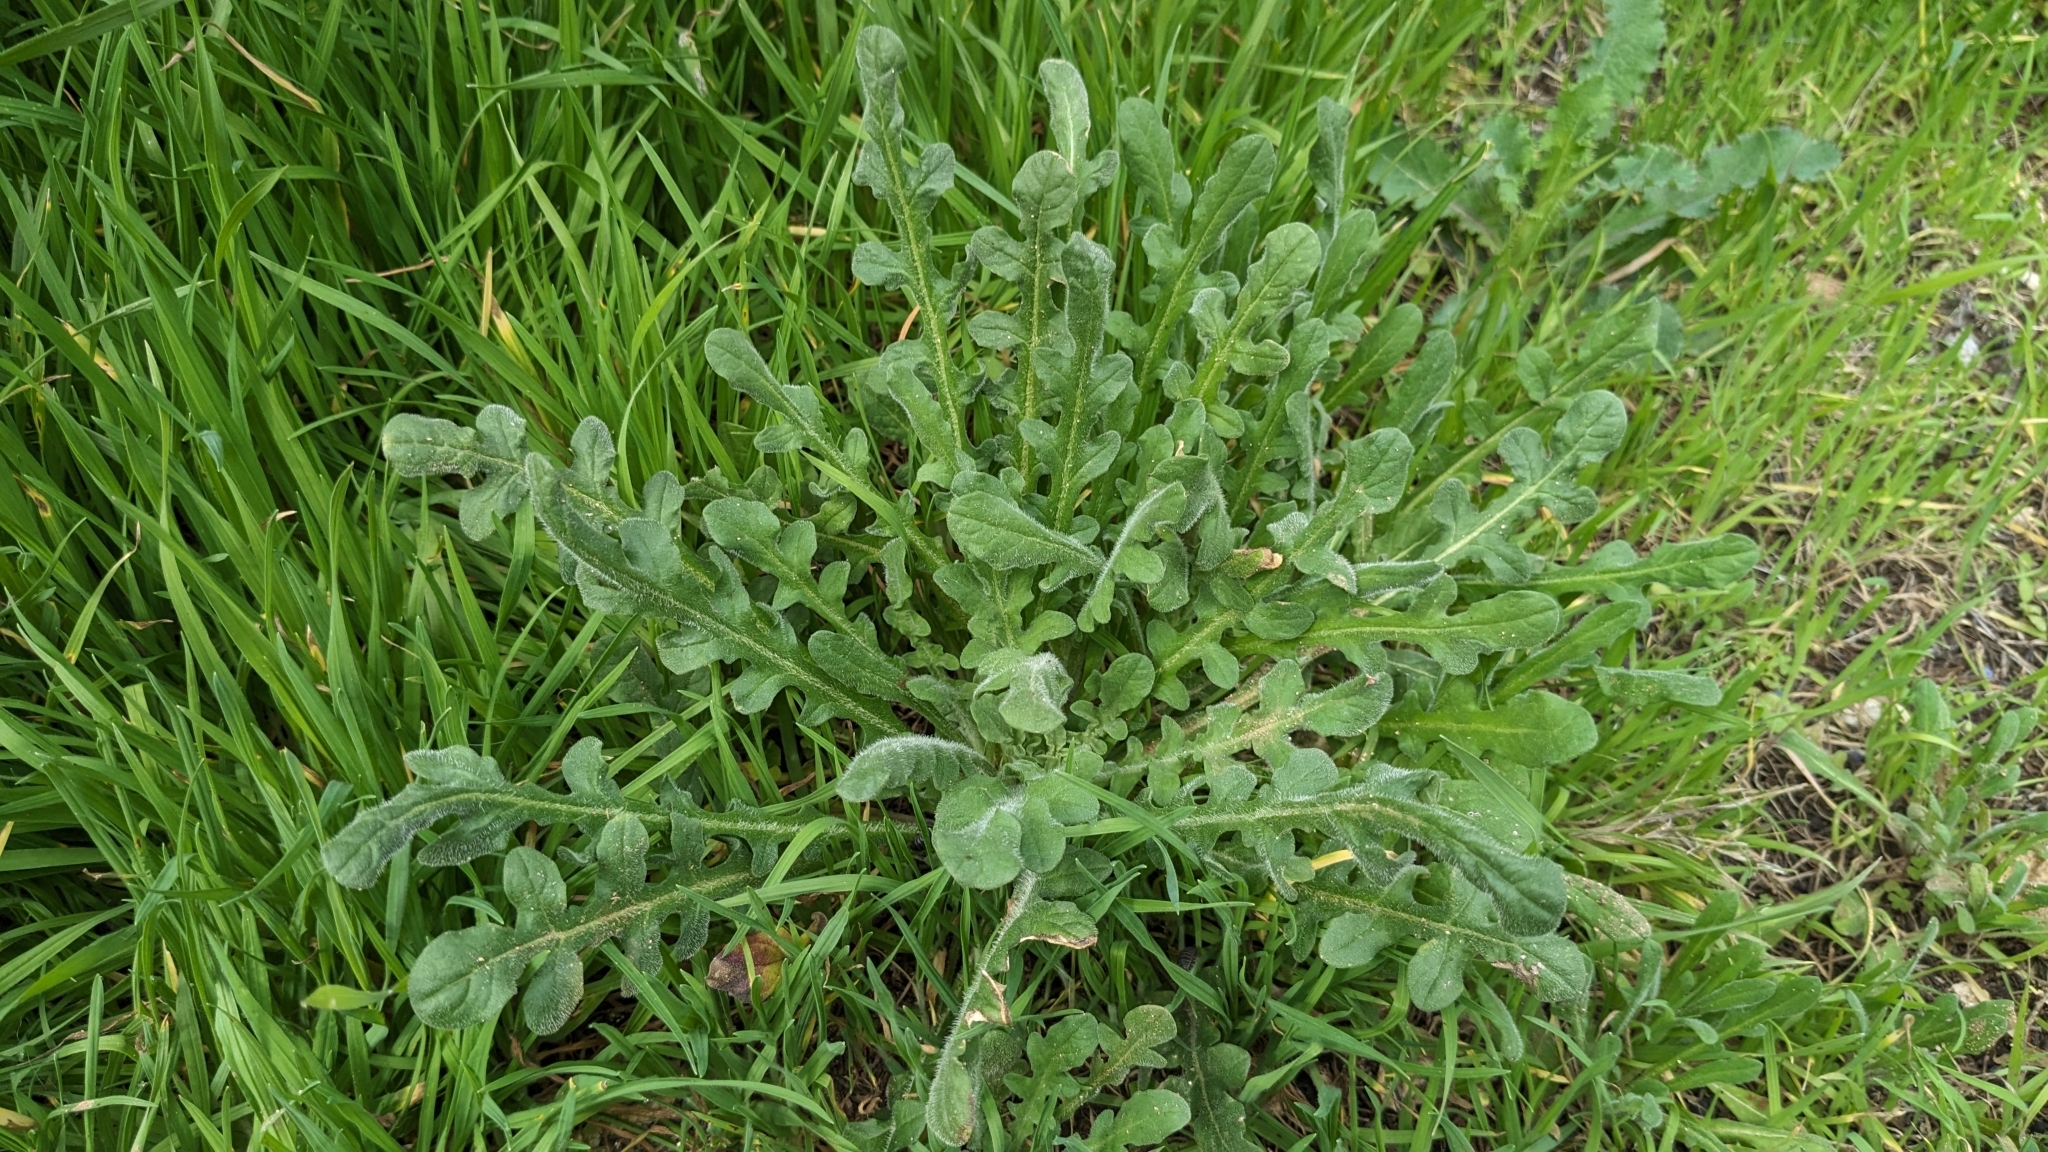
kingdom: Plantae
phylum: Tracheophyta
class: Magnoliopsida
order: Asterales
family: Asteraceae
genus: Centaurea
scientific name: Centaurea melitensis
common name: Maltese star-thistle
